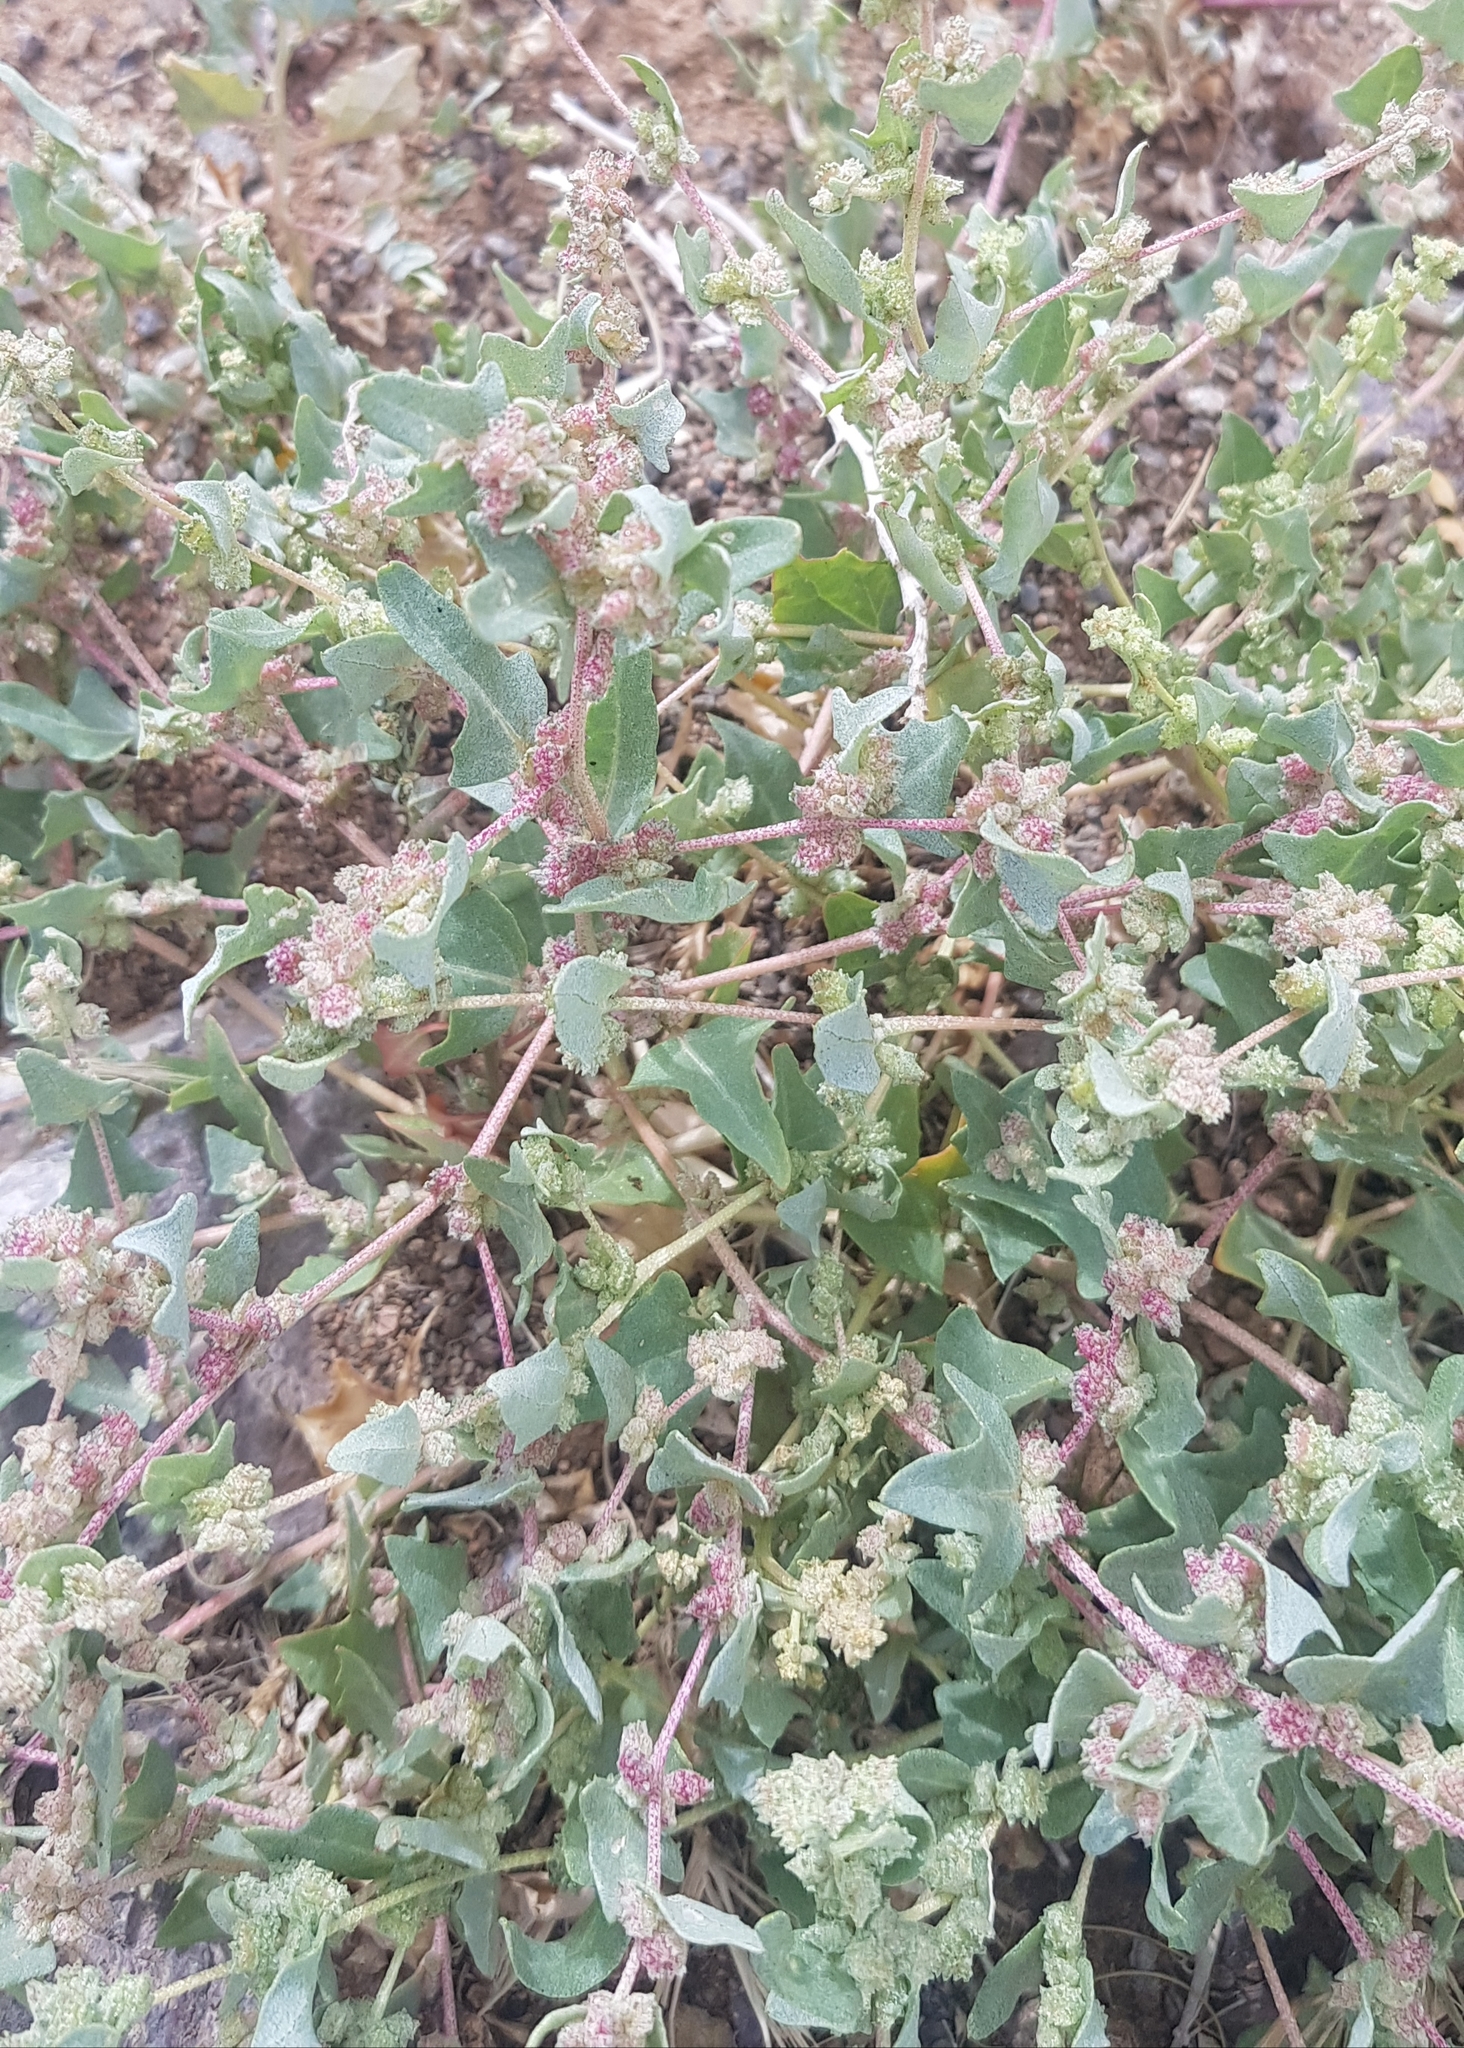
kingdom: Plantae
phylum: Tracheophyta
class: Magnoliopsida
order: Caryophyllales
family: Amaranthaceae
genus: Atriplex
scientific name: Atriplex sibirica
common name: Siberian saltbush
